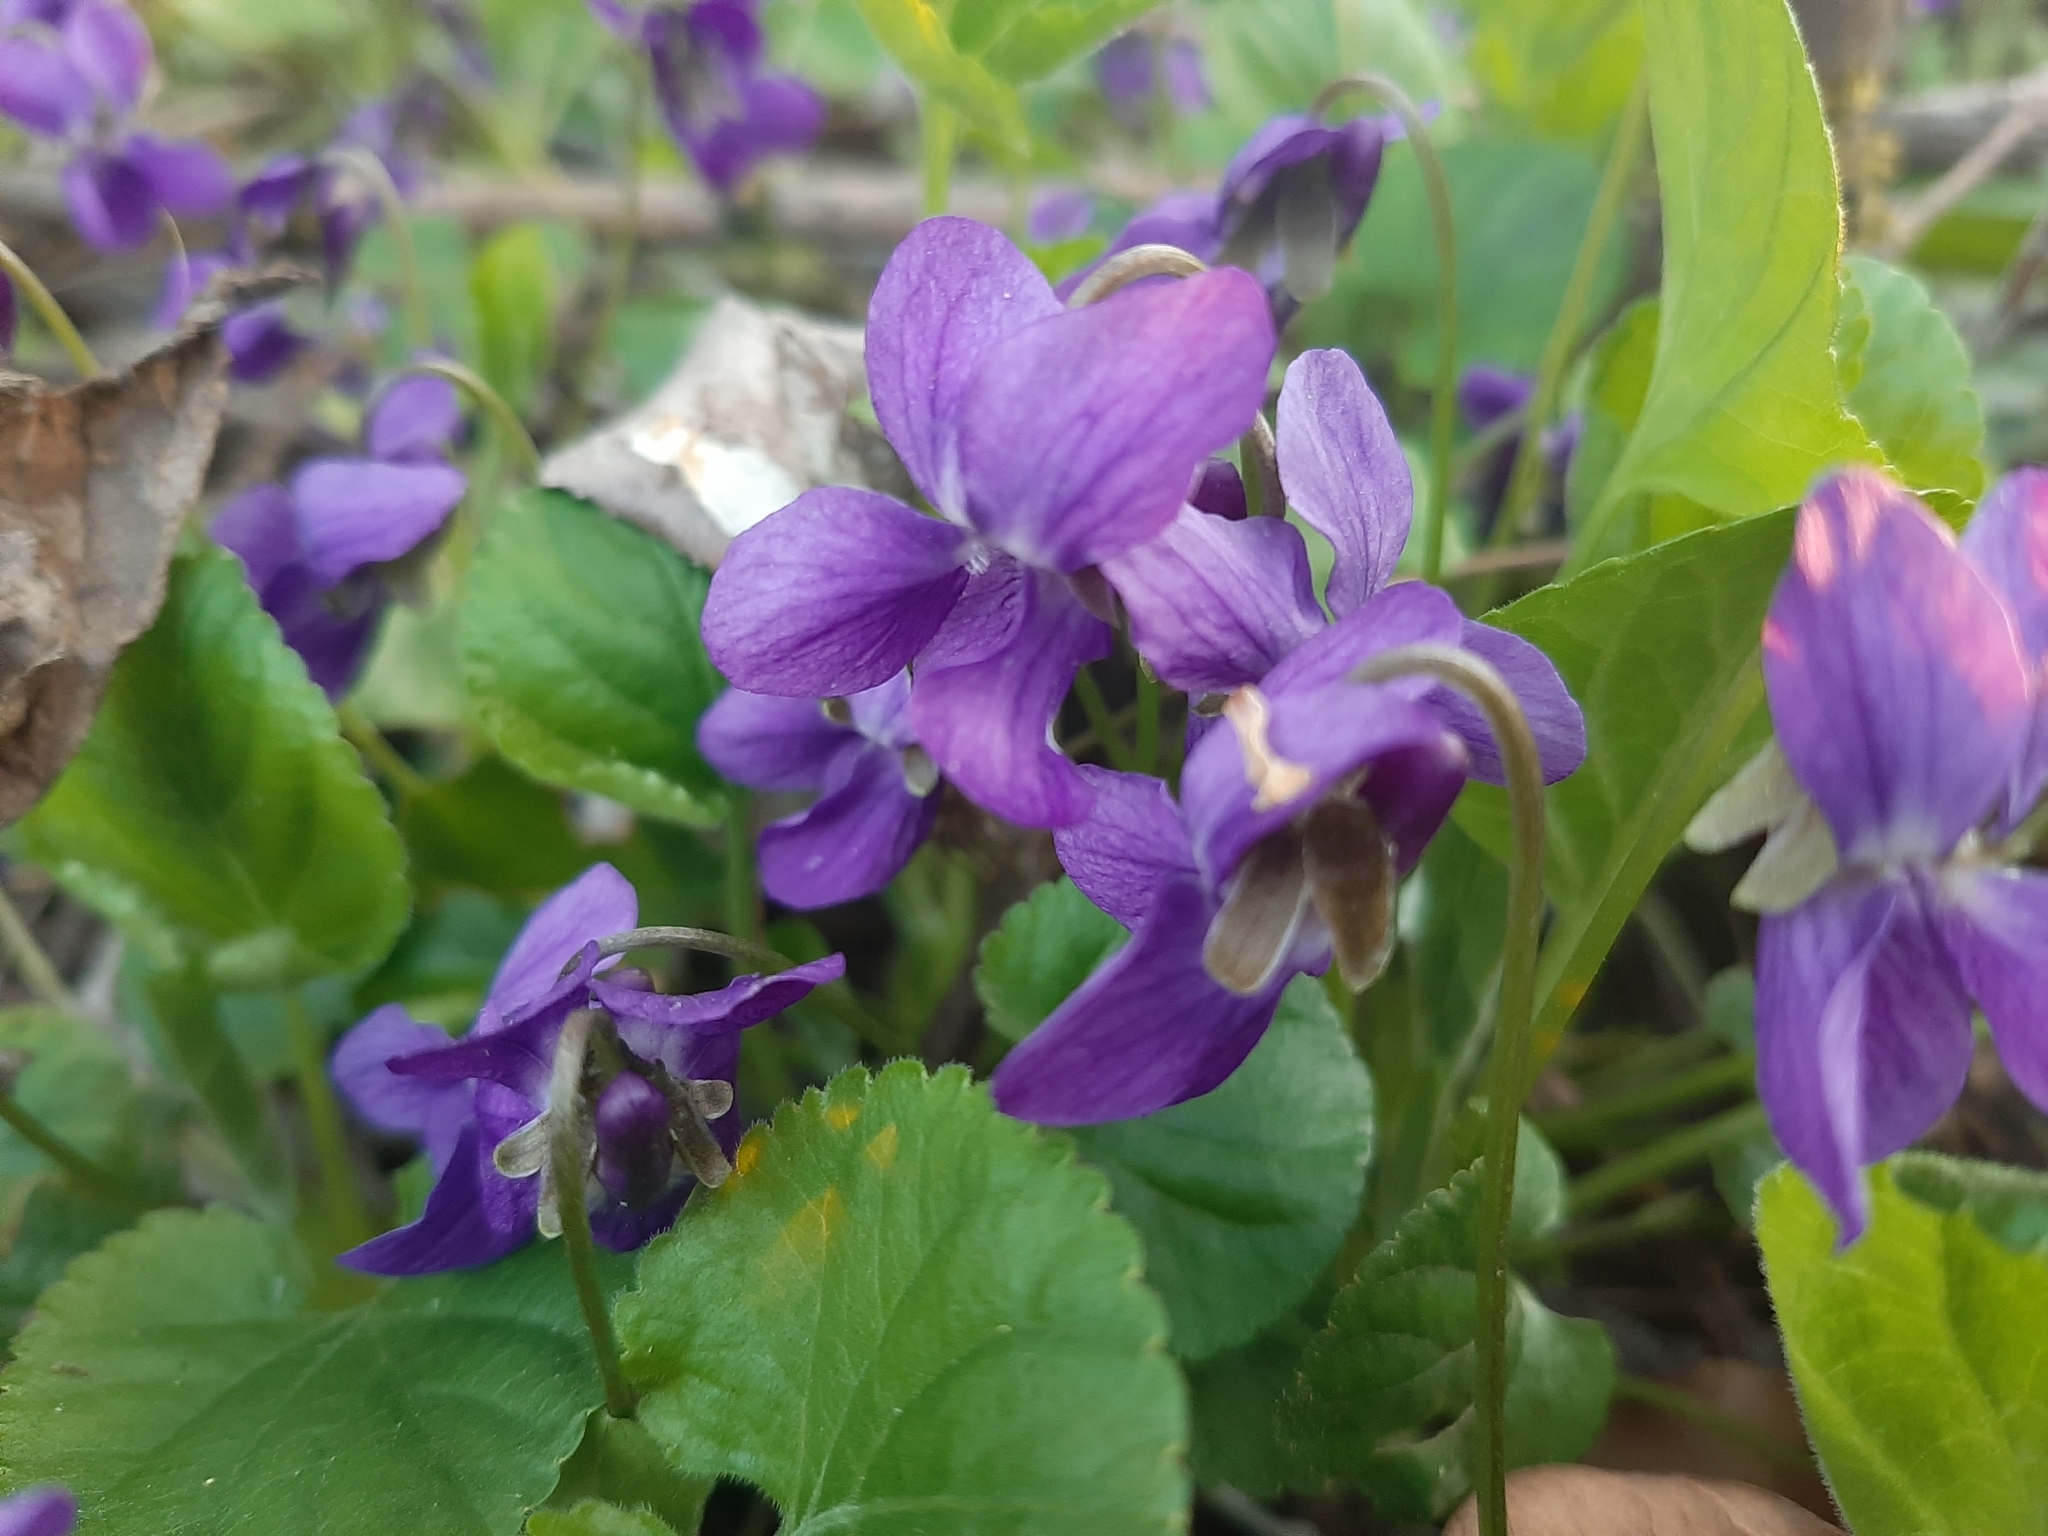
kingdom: Plantae
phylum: Tracheophyta
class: Magnoliopsida
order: Malpighiales
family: Violaceae
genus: Viola
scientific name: Viola odorata
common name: Sweet violet
